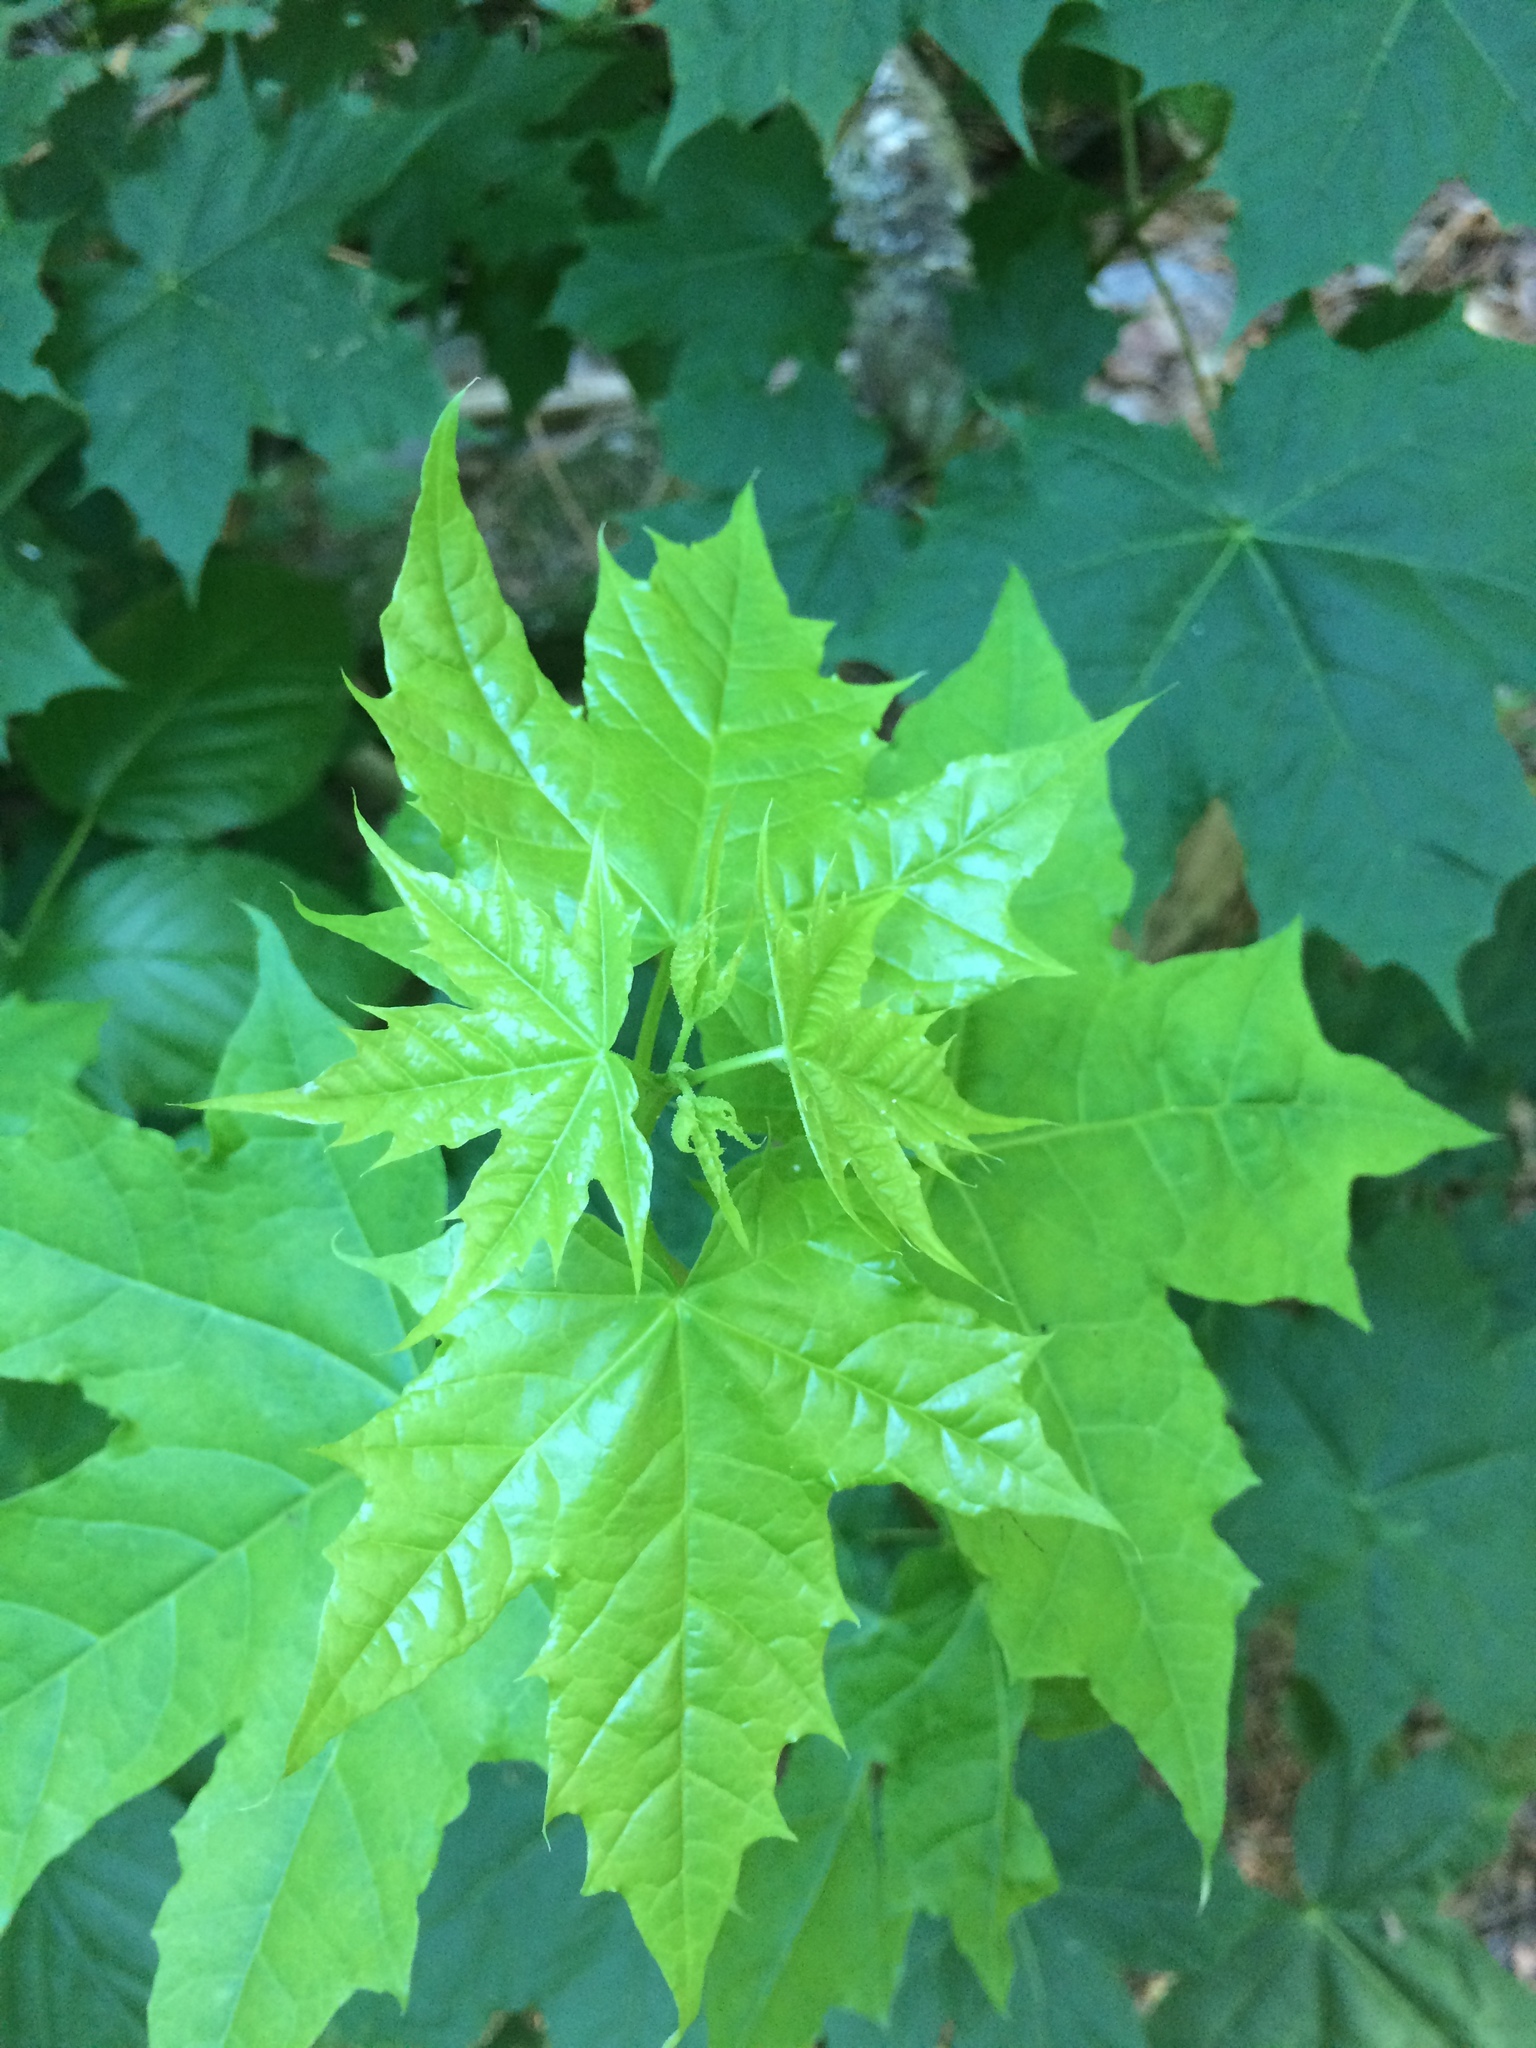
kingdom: Plantae
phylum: Tracheophyta
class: Magnoliopsida
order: Sapindales
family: Sapindaceae
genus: Acer
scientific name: Acer platanoides
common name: Norway maple
